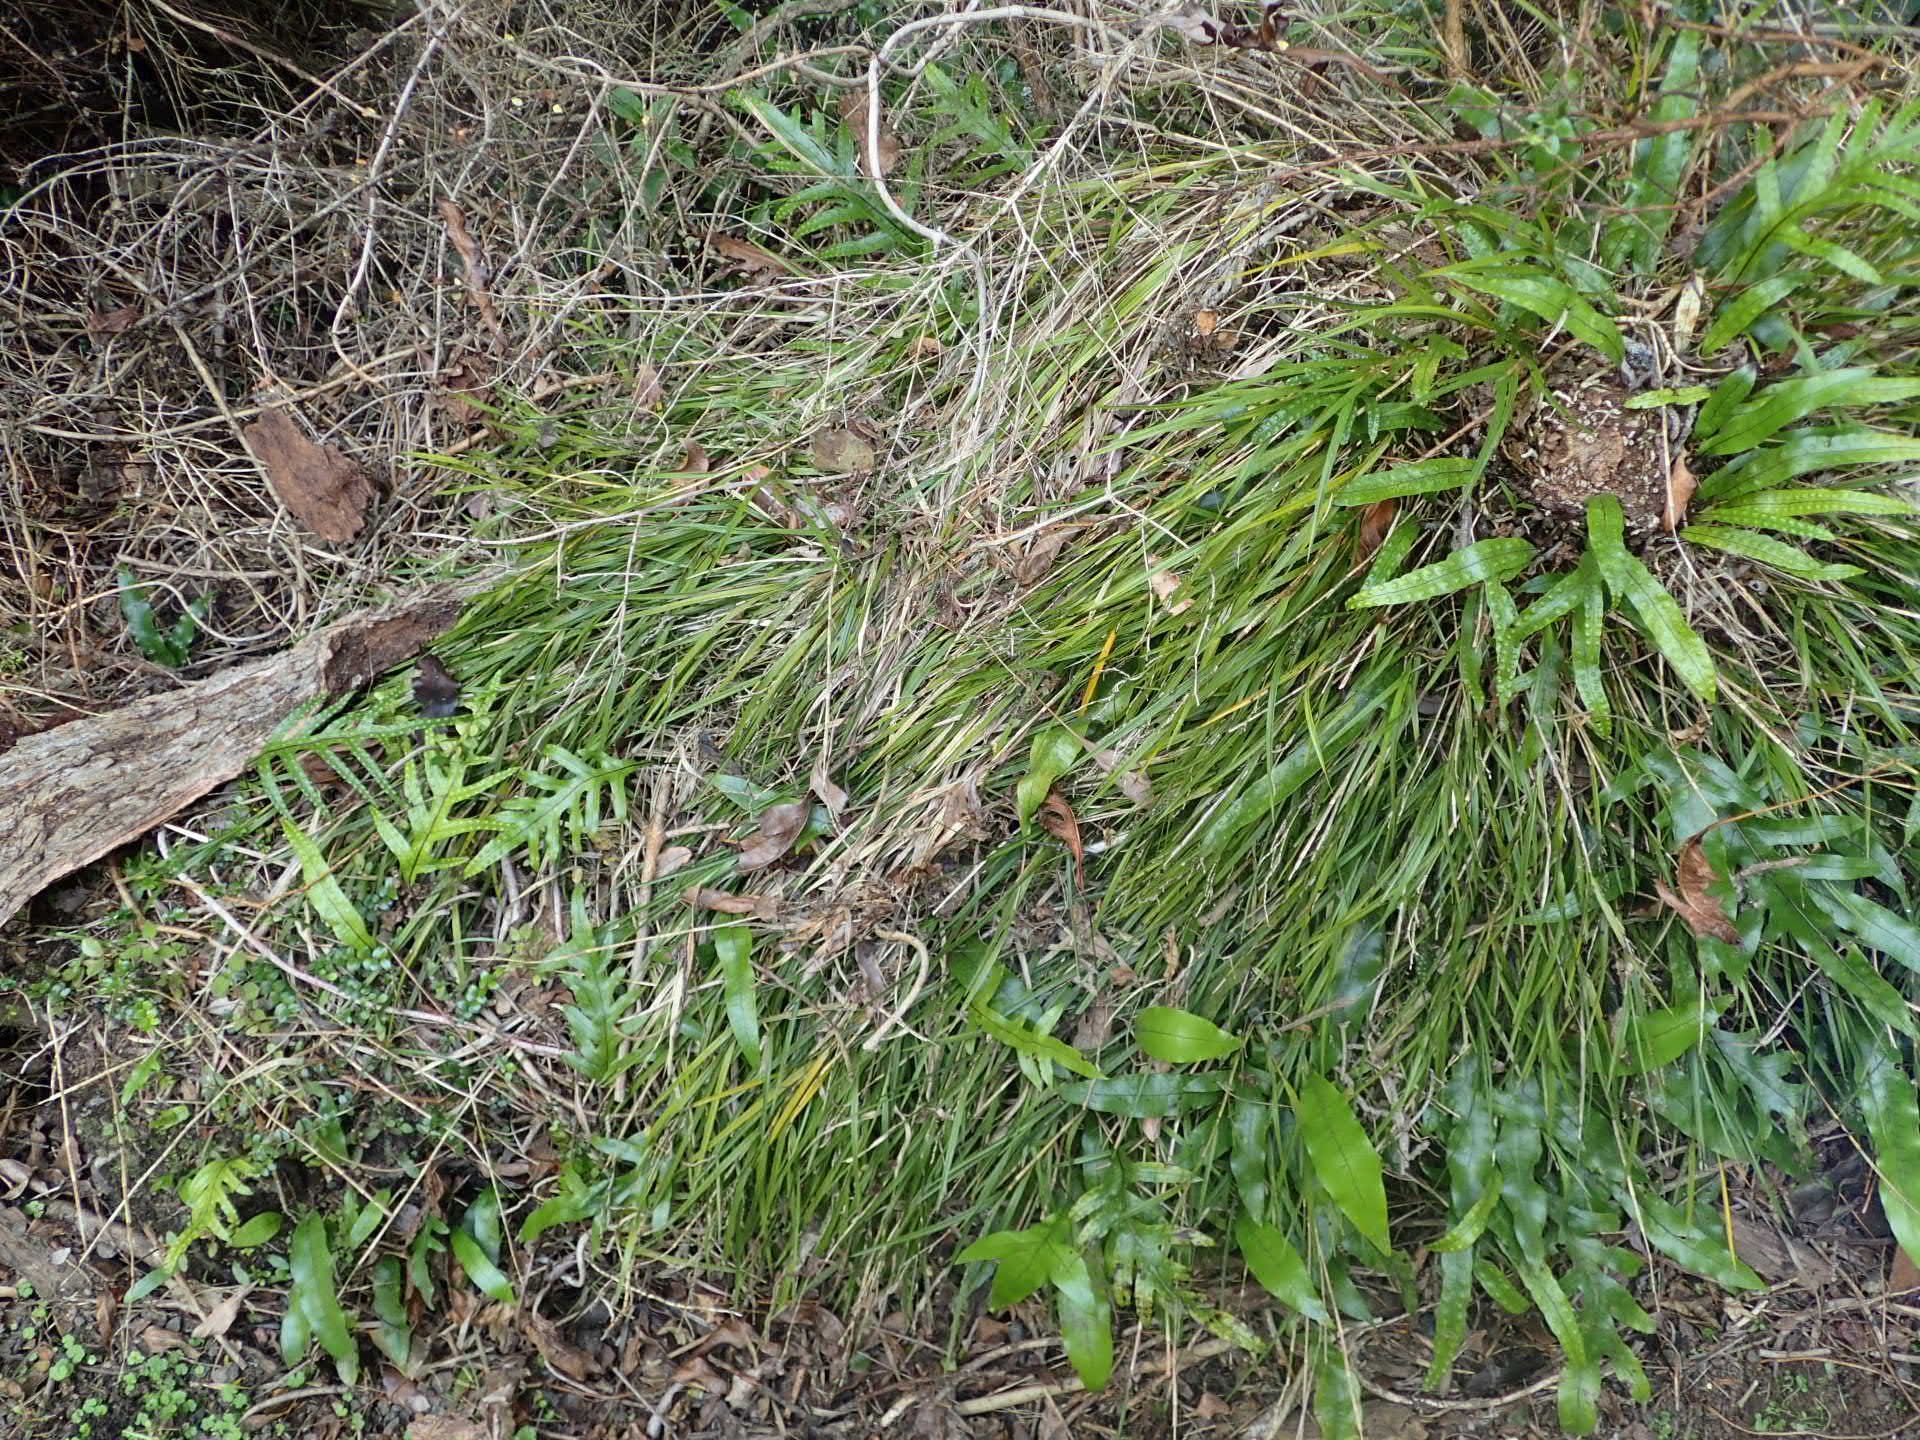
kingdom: Plantae
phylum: Tracheophyta
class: Liliopsida
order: Asparagales
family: Orchidaceae
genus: Earina
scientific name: Earina mucronata
